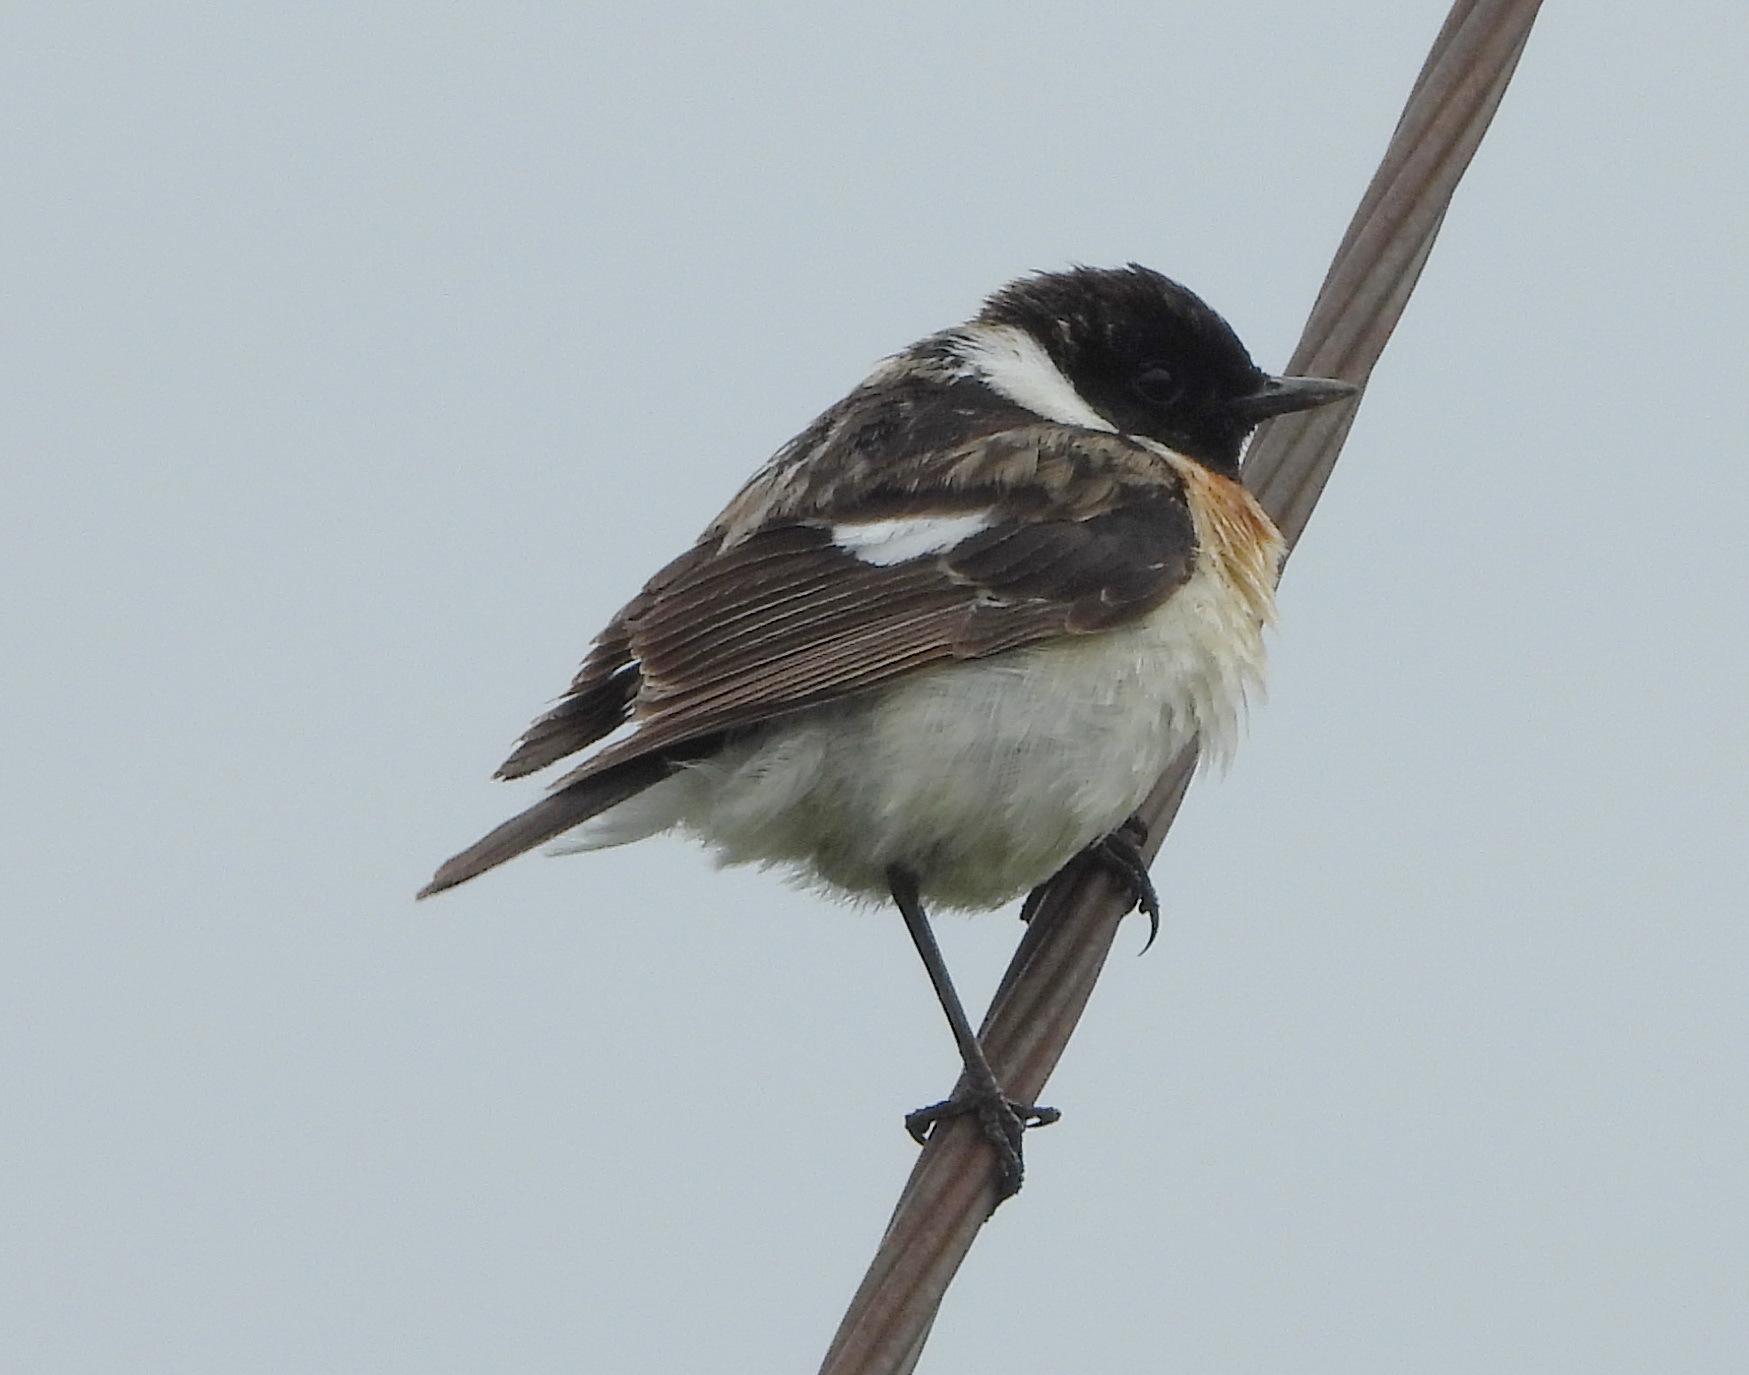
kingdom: Animalia
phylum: Chordata
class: Aves
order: Passeriformes
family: Muscicapidae
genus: Saxicola
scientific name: Saxicola maurus
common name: Siberian stonechat
